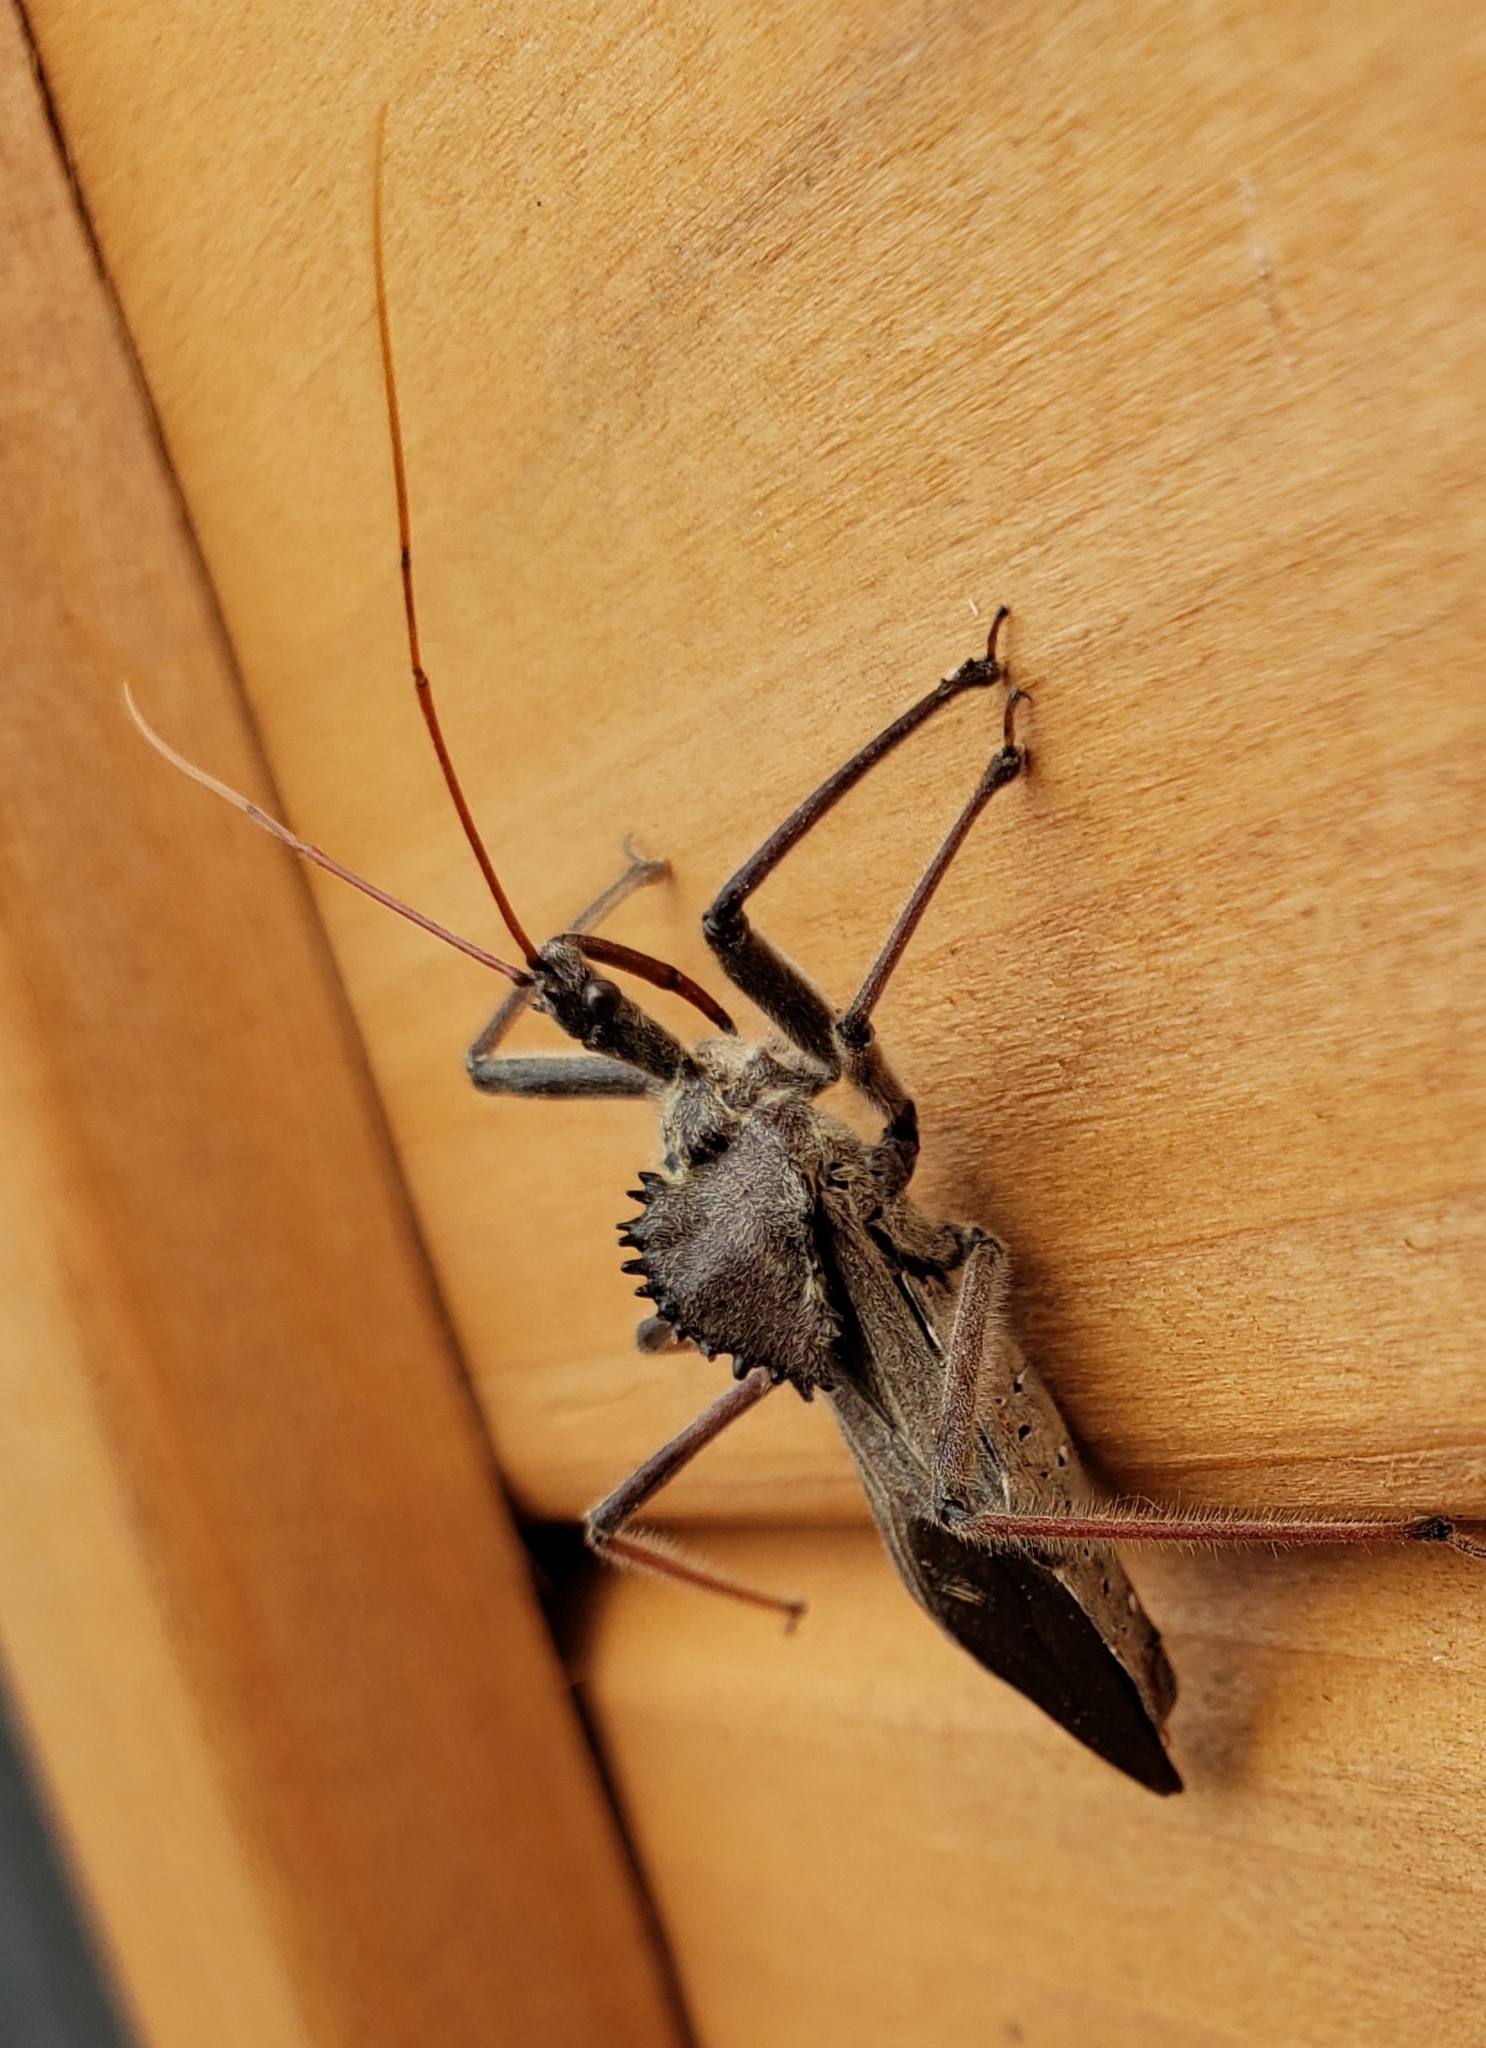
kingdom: Animalia
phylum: Arthropoda
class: Insecta
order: Hemiptera
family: Reduviidae
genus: Arilus
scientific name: Arilus cristatus
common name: North american wheel bug
